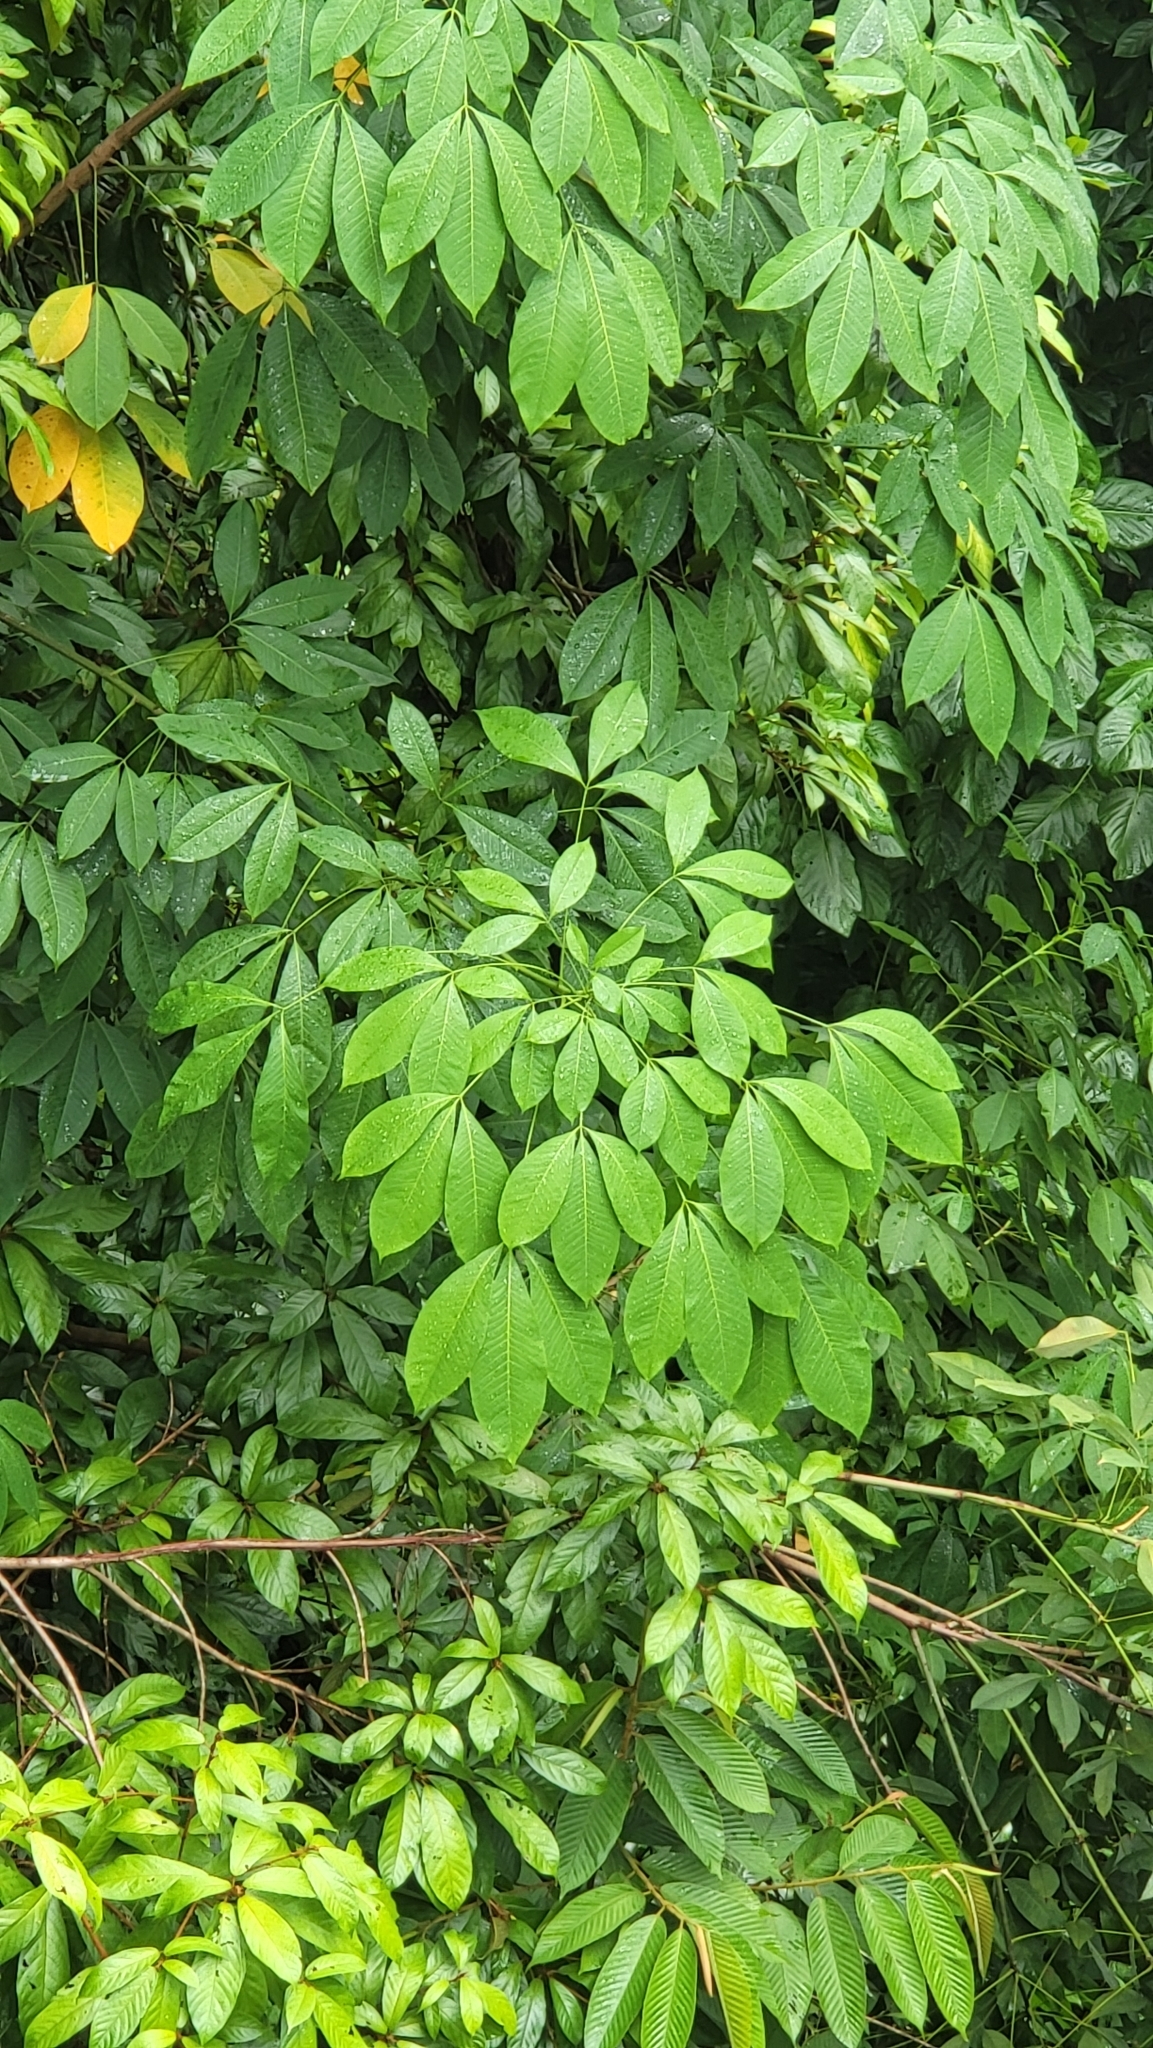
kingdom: Plantae
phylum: Tracheophyta
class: Magnoliopsida
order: Malpighiales
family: Euphorbiaceae
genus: Hevea
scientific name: Hevea brasiliensis
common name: Natural rubber
